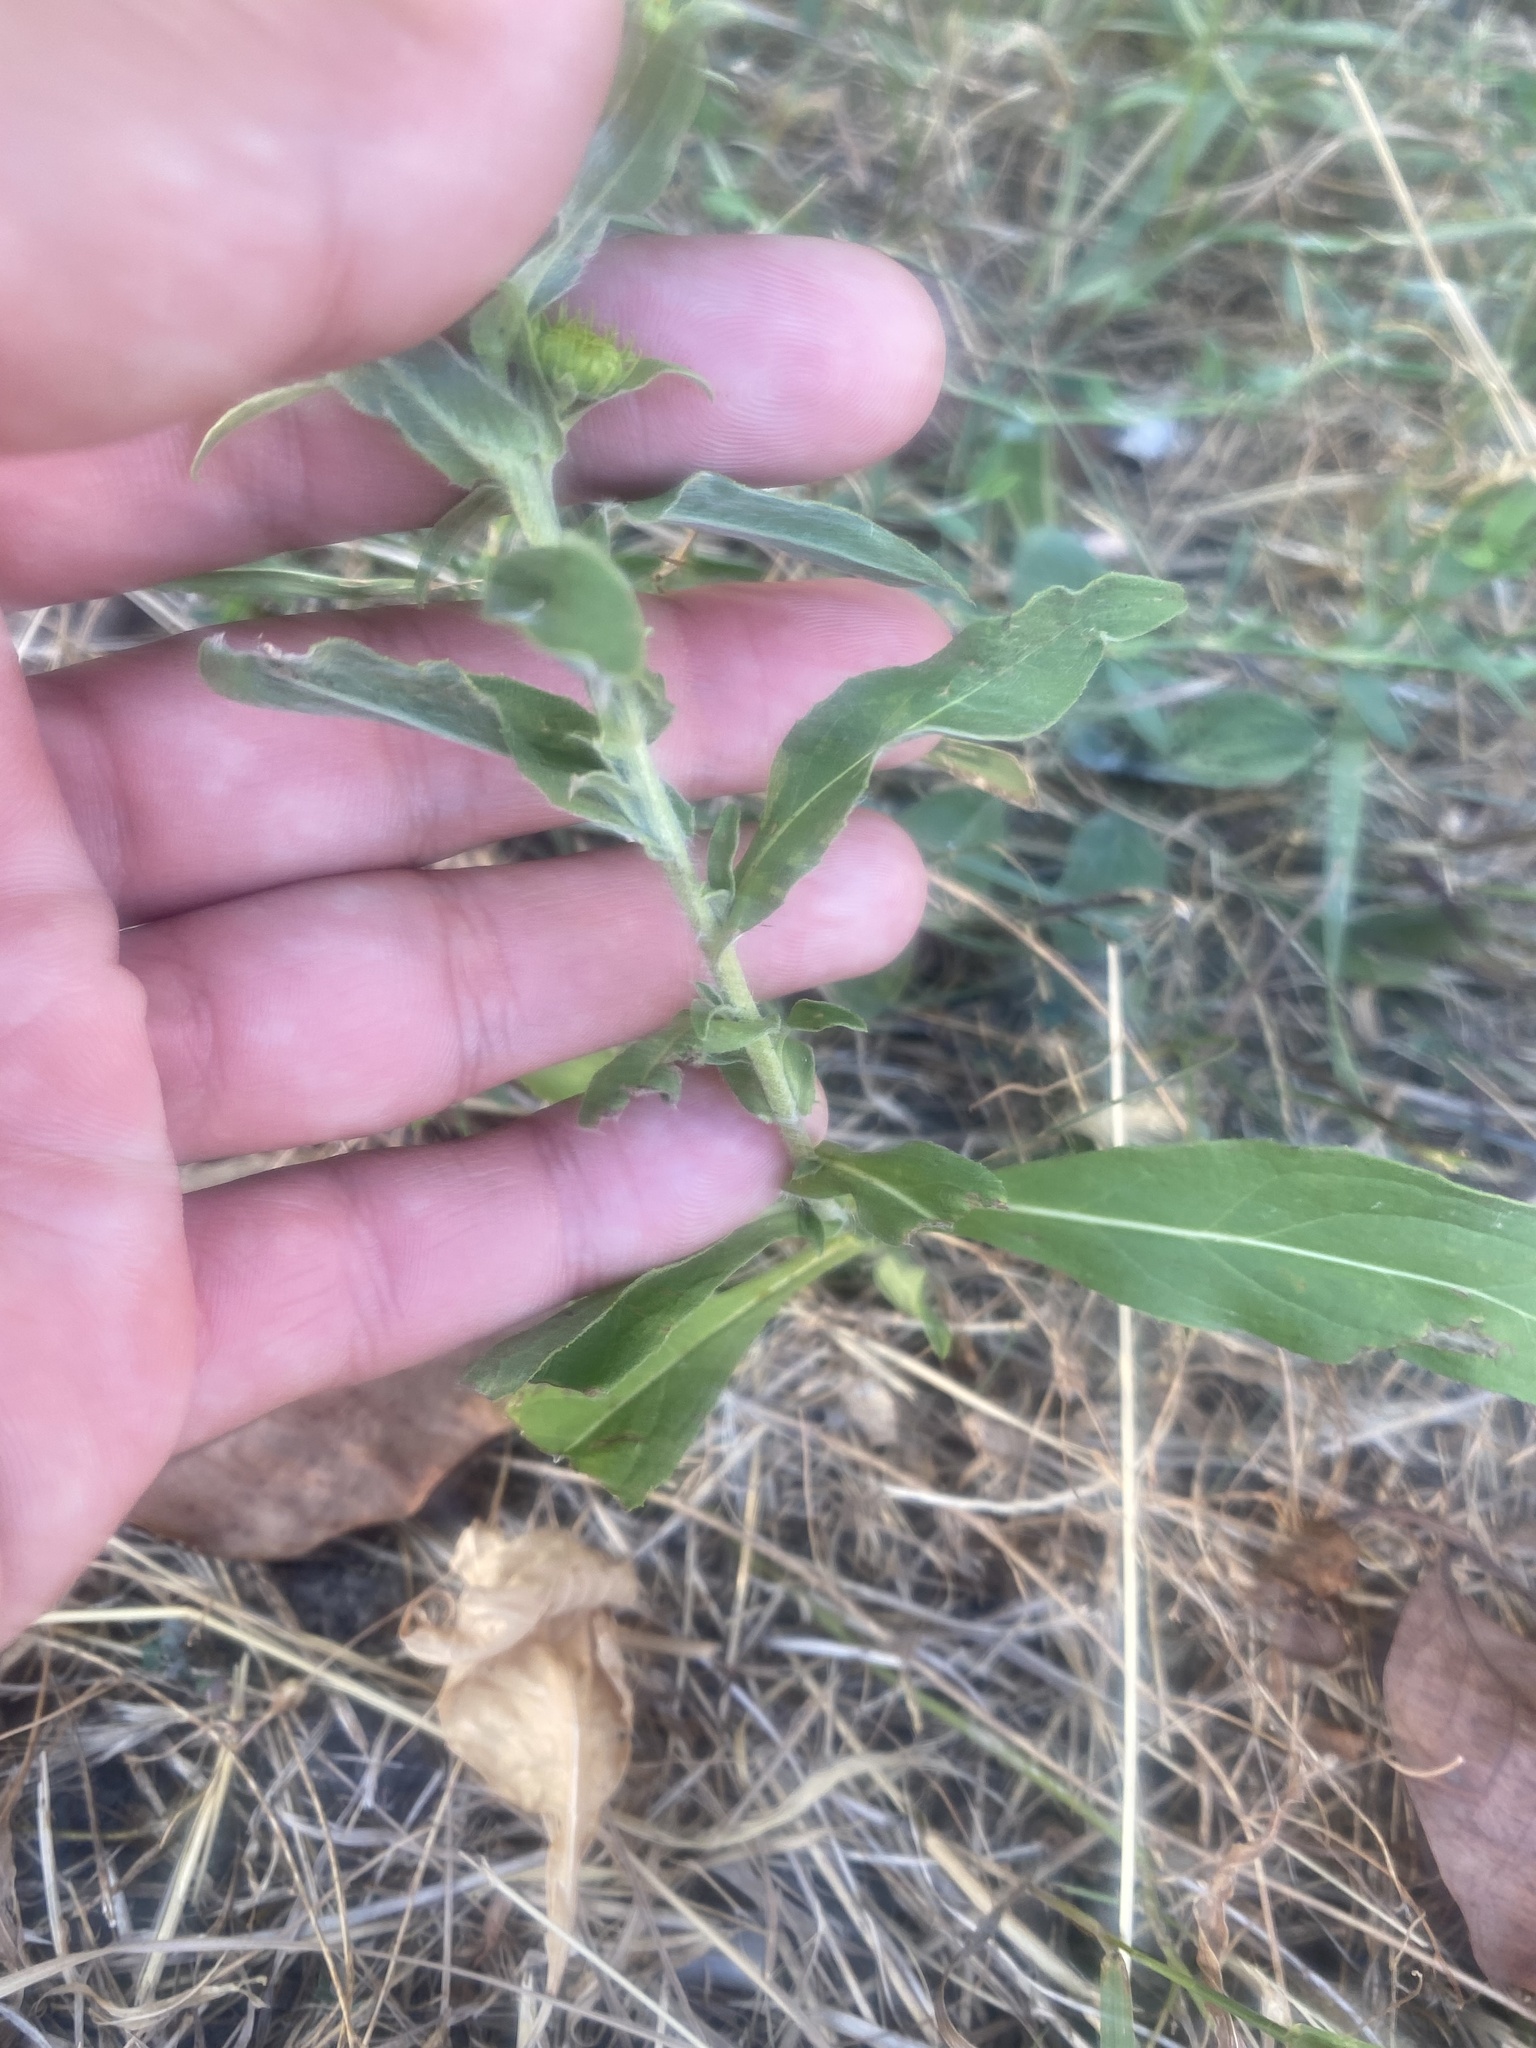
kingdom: Plantae
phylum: Tracheophyta
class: Magnoliopsida
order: Asterales
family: Asteraceae
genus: Pentanema
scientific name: Pentanema britannicum
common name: British elecampane
